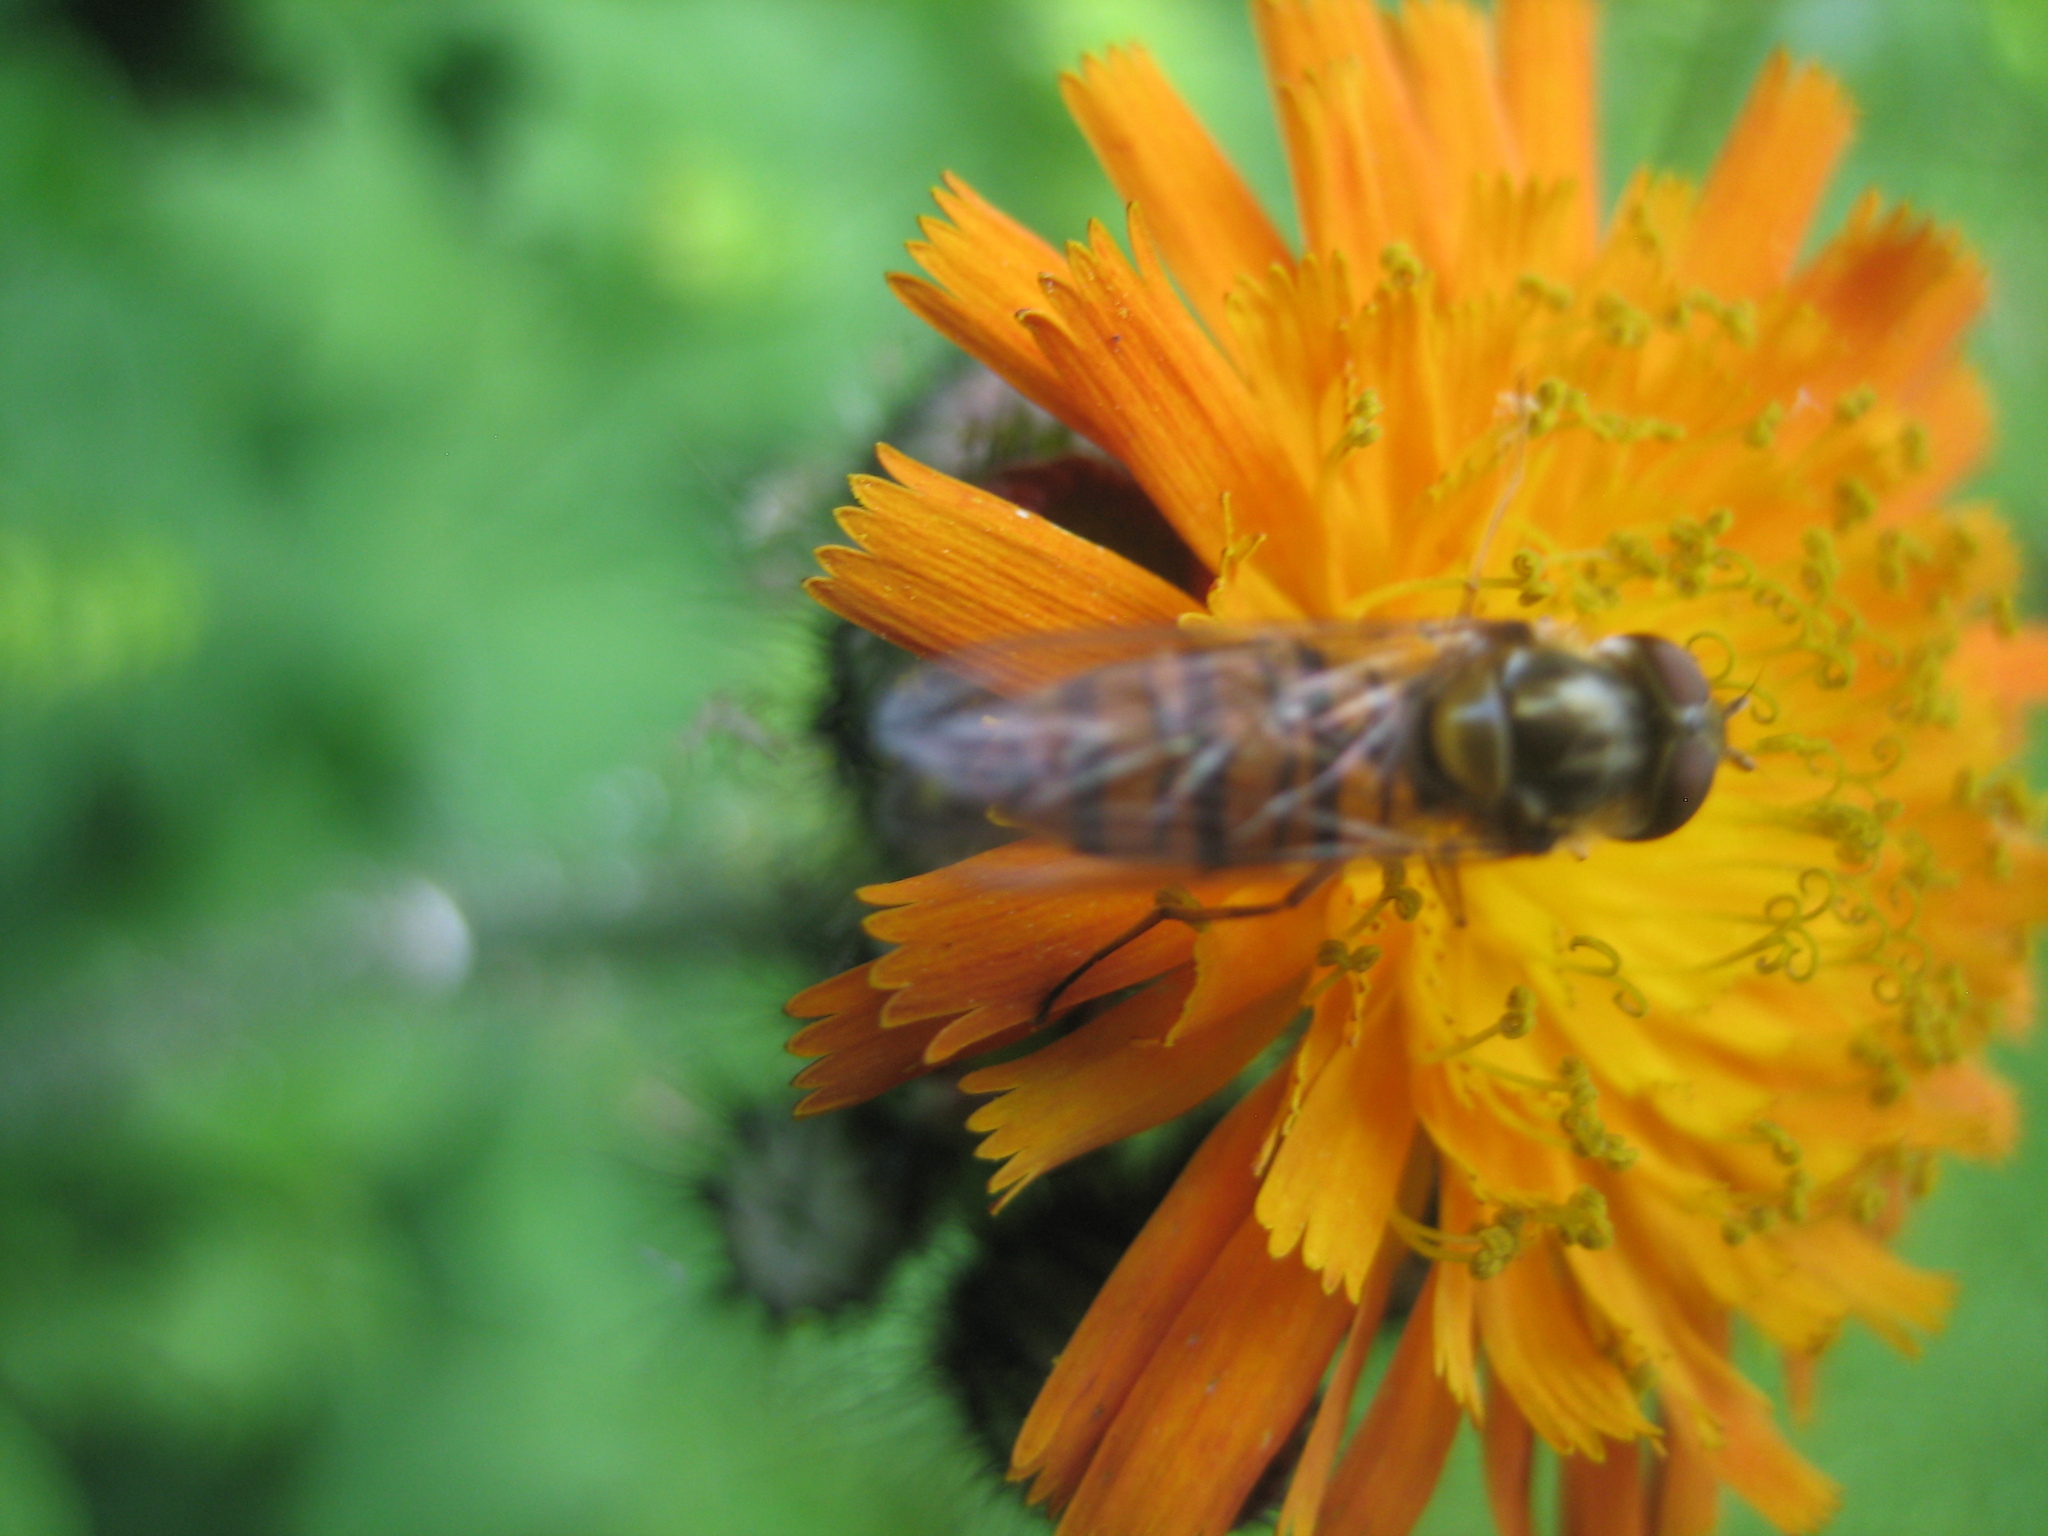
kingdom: Animalia
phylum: Arthropoda
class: Insecta
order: Diptera
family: Syrphidae
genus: Episyrphus
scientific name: Episyrphus balteatus
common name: Marmalade hoverfly
